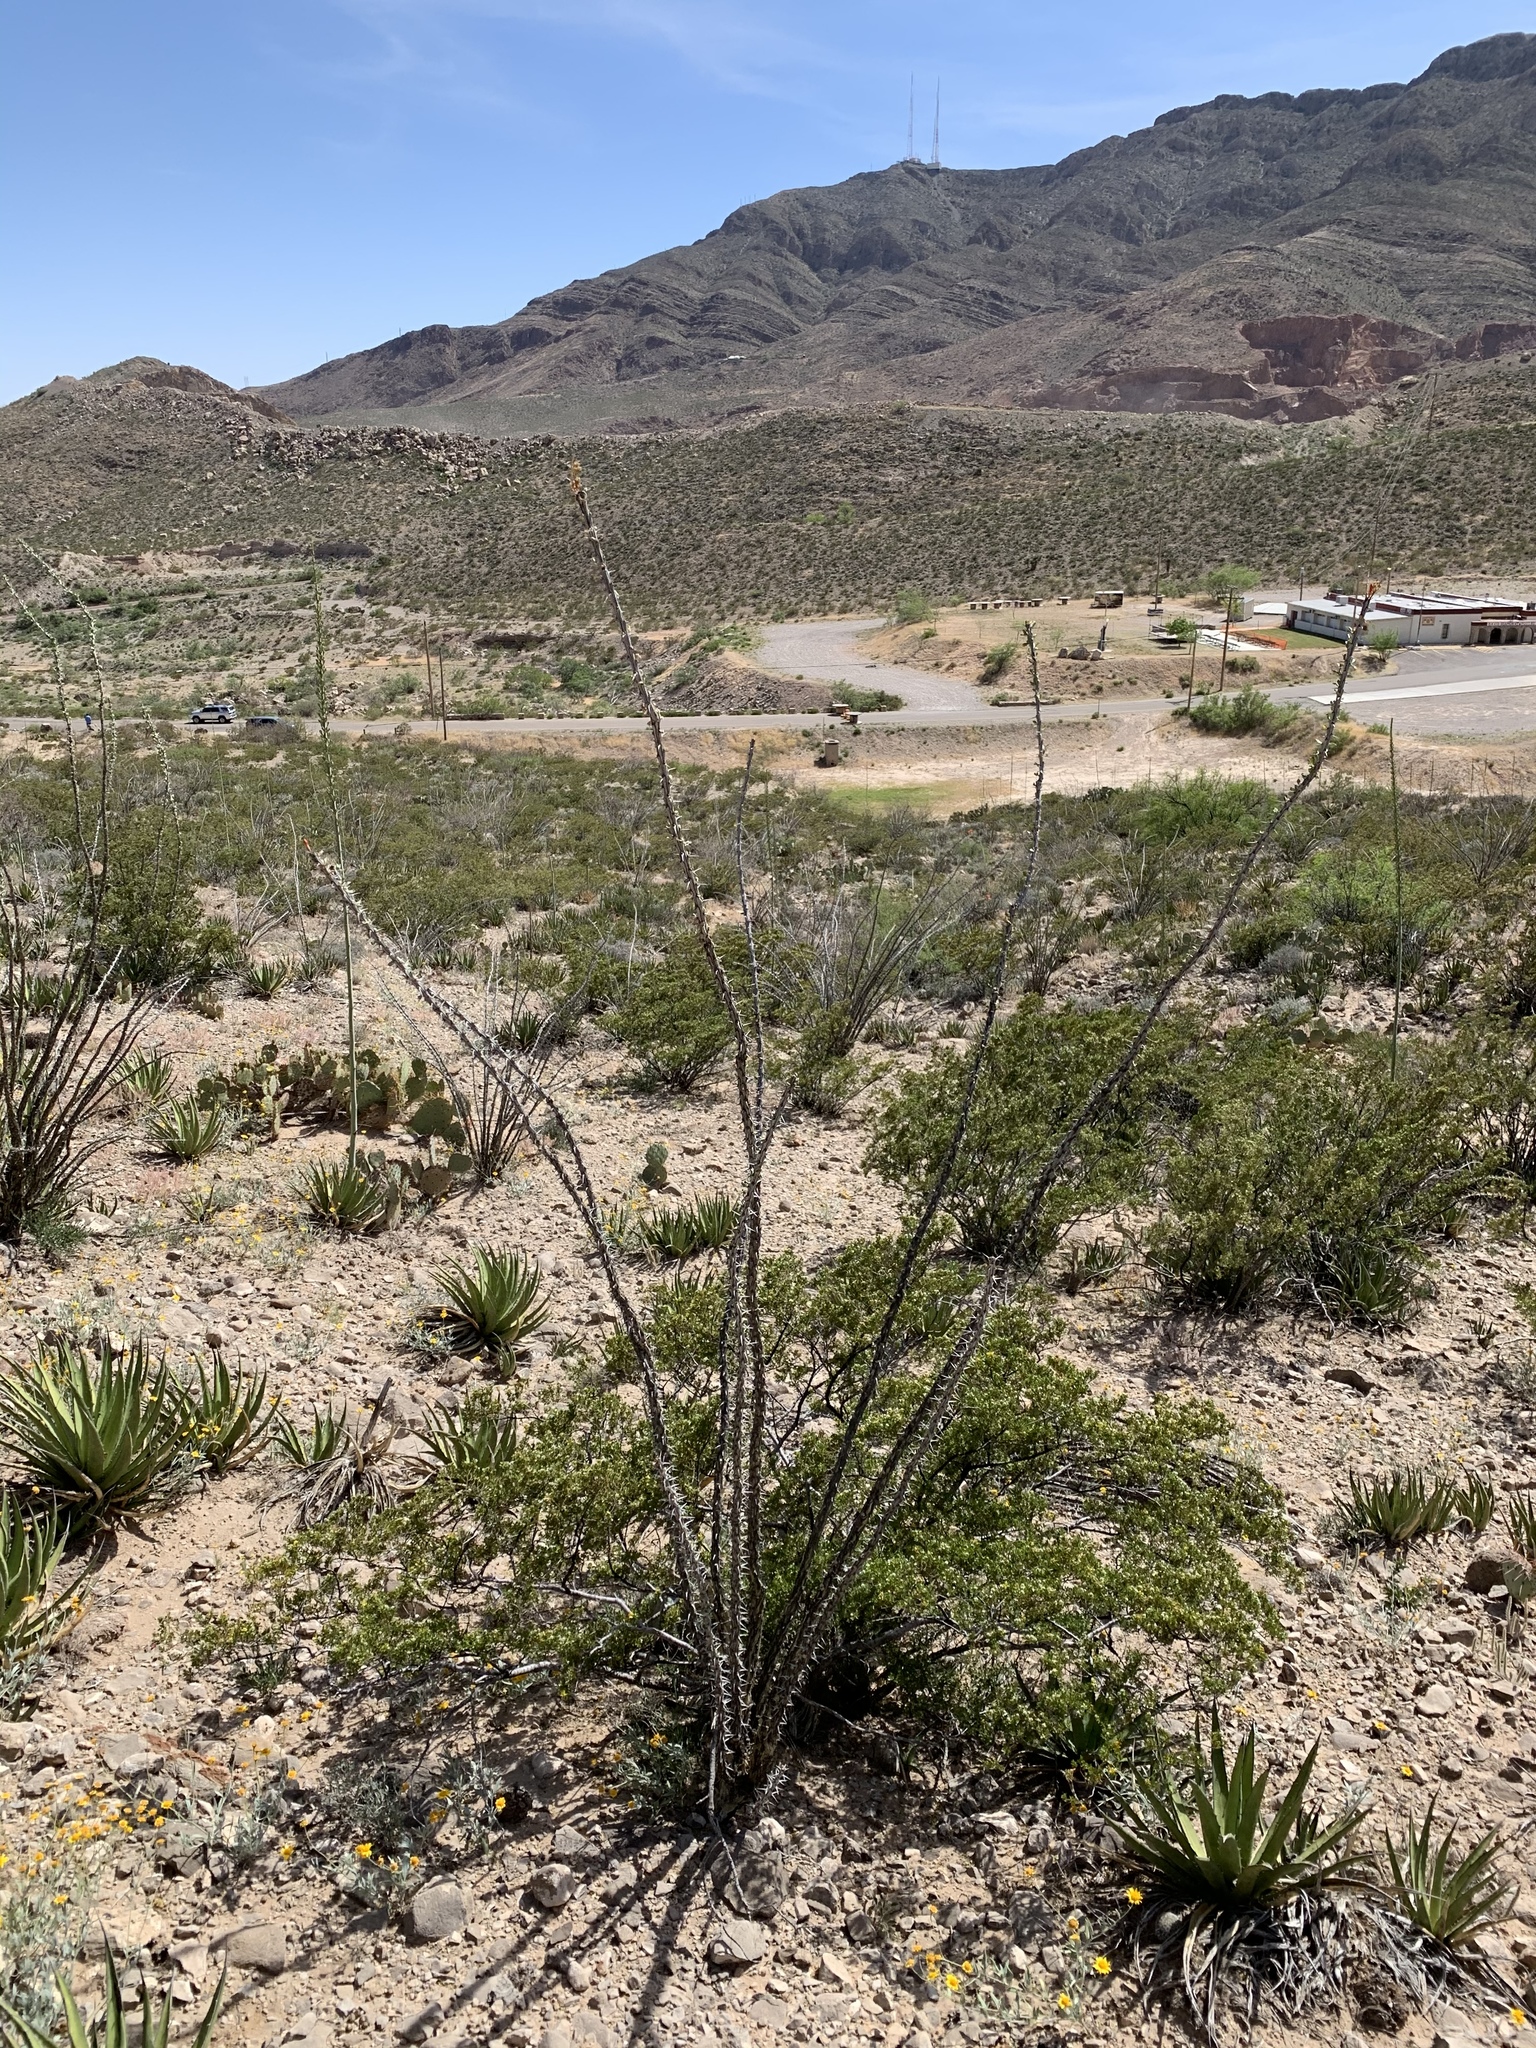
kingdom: Plantae
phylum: Tracheophyta
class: Magnoliopsida
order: Ericales
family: Fouquieriaceae
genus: Fouquieria
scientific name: Fouquieria splendens
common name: Vine-cactus
